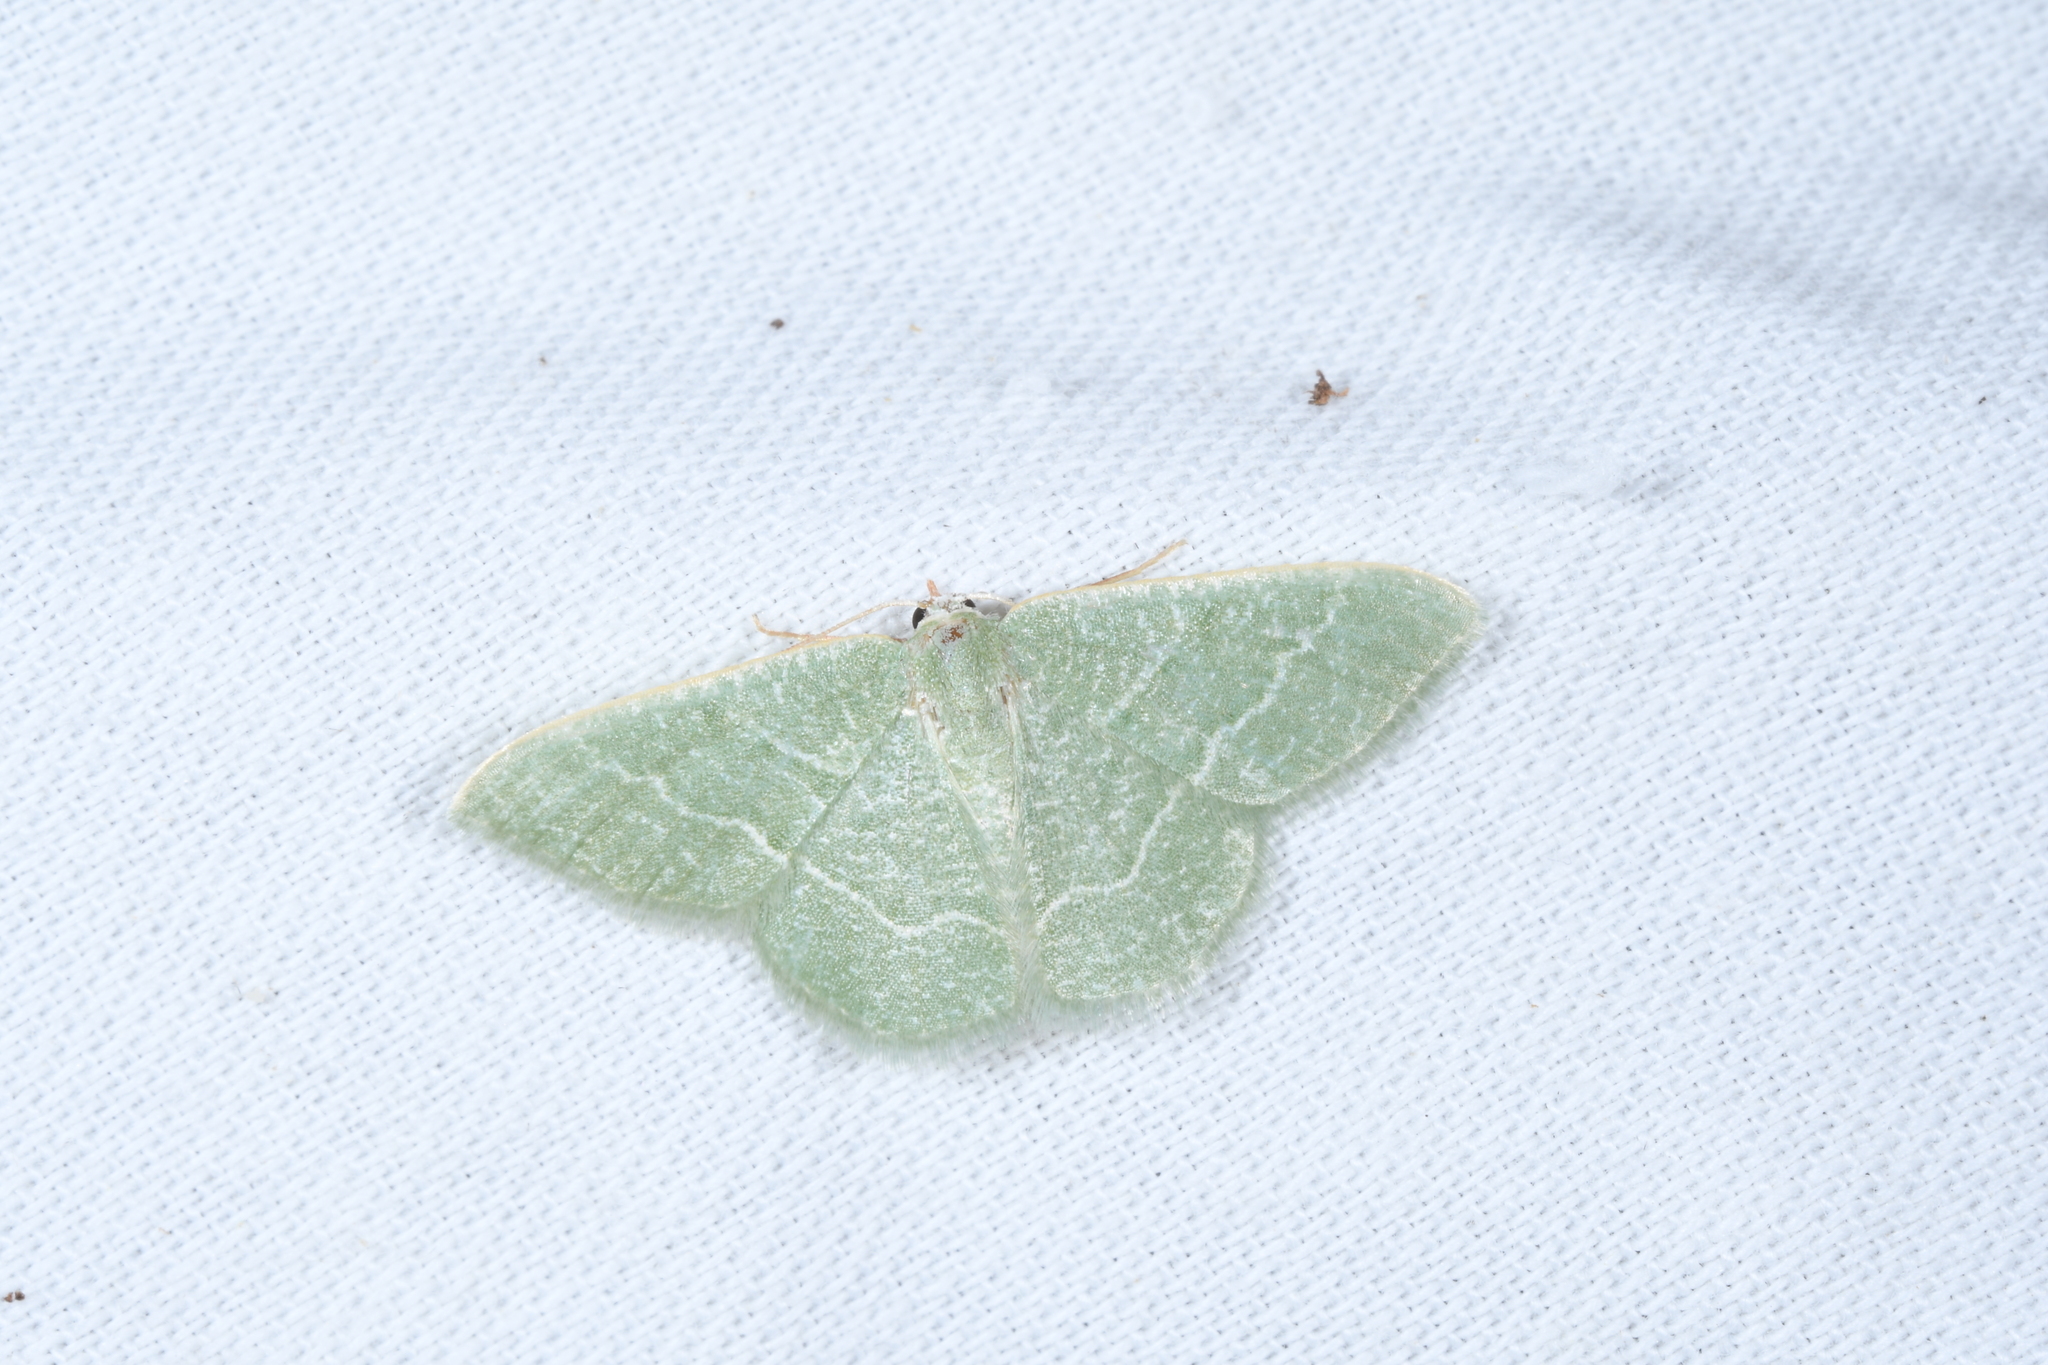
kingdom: Animalia
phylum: Arthropoda
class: Insecta
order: Lepidoptera
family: Geometridae
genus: Chlorissa
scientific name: Chlorissa etruscaria
